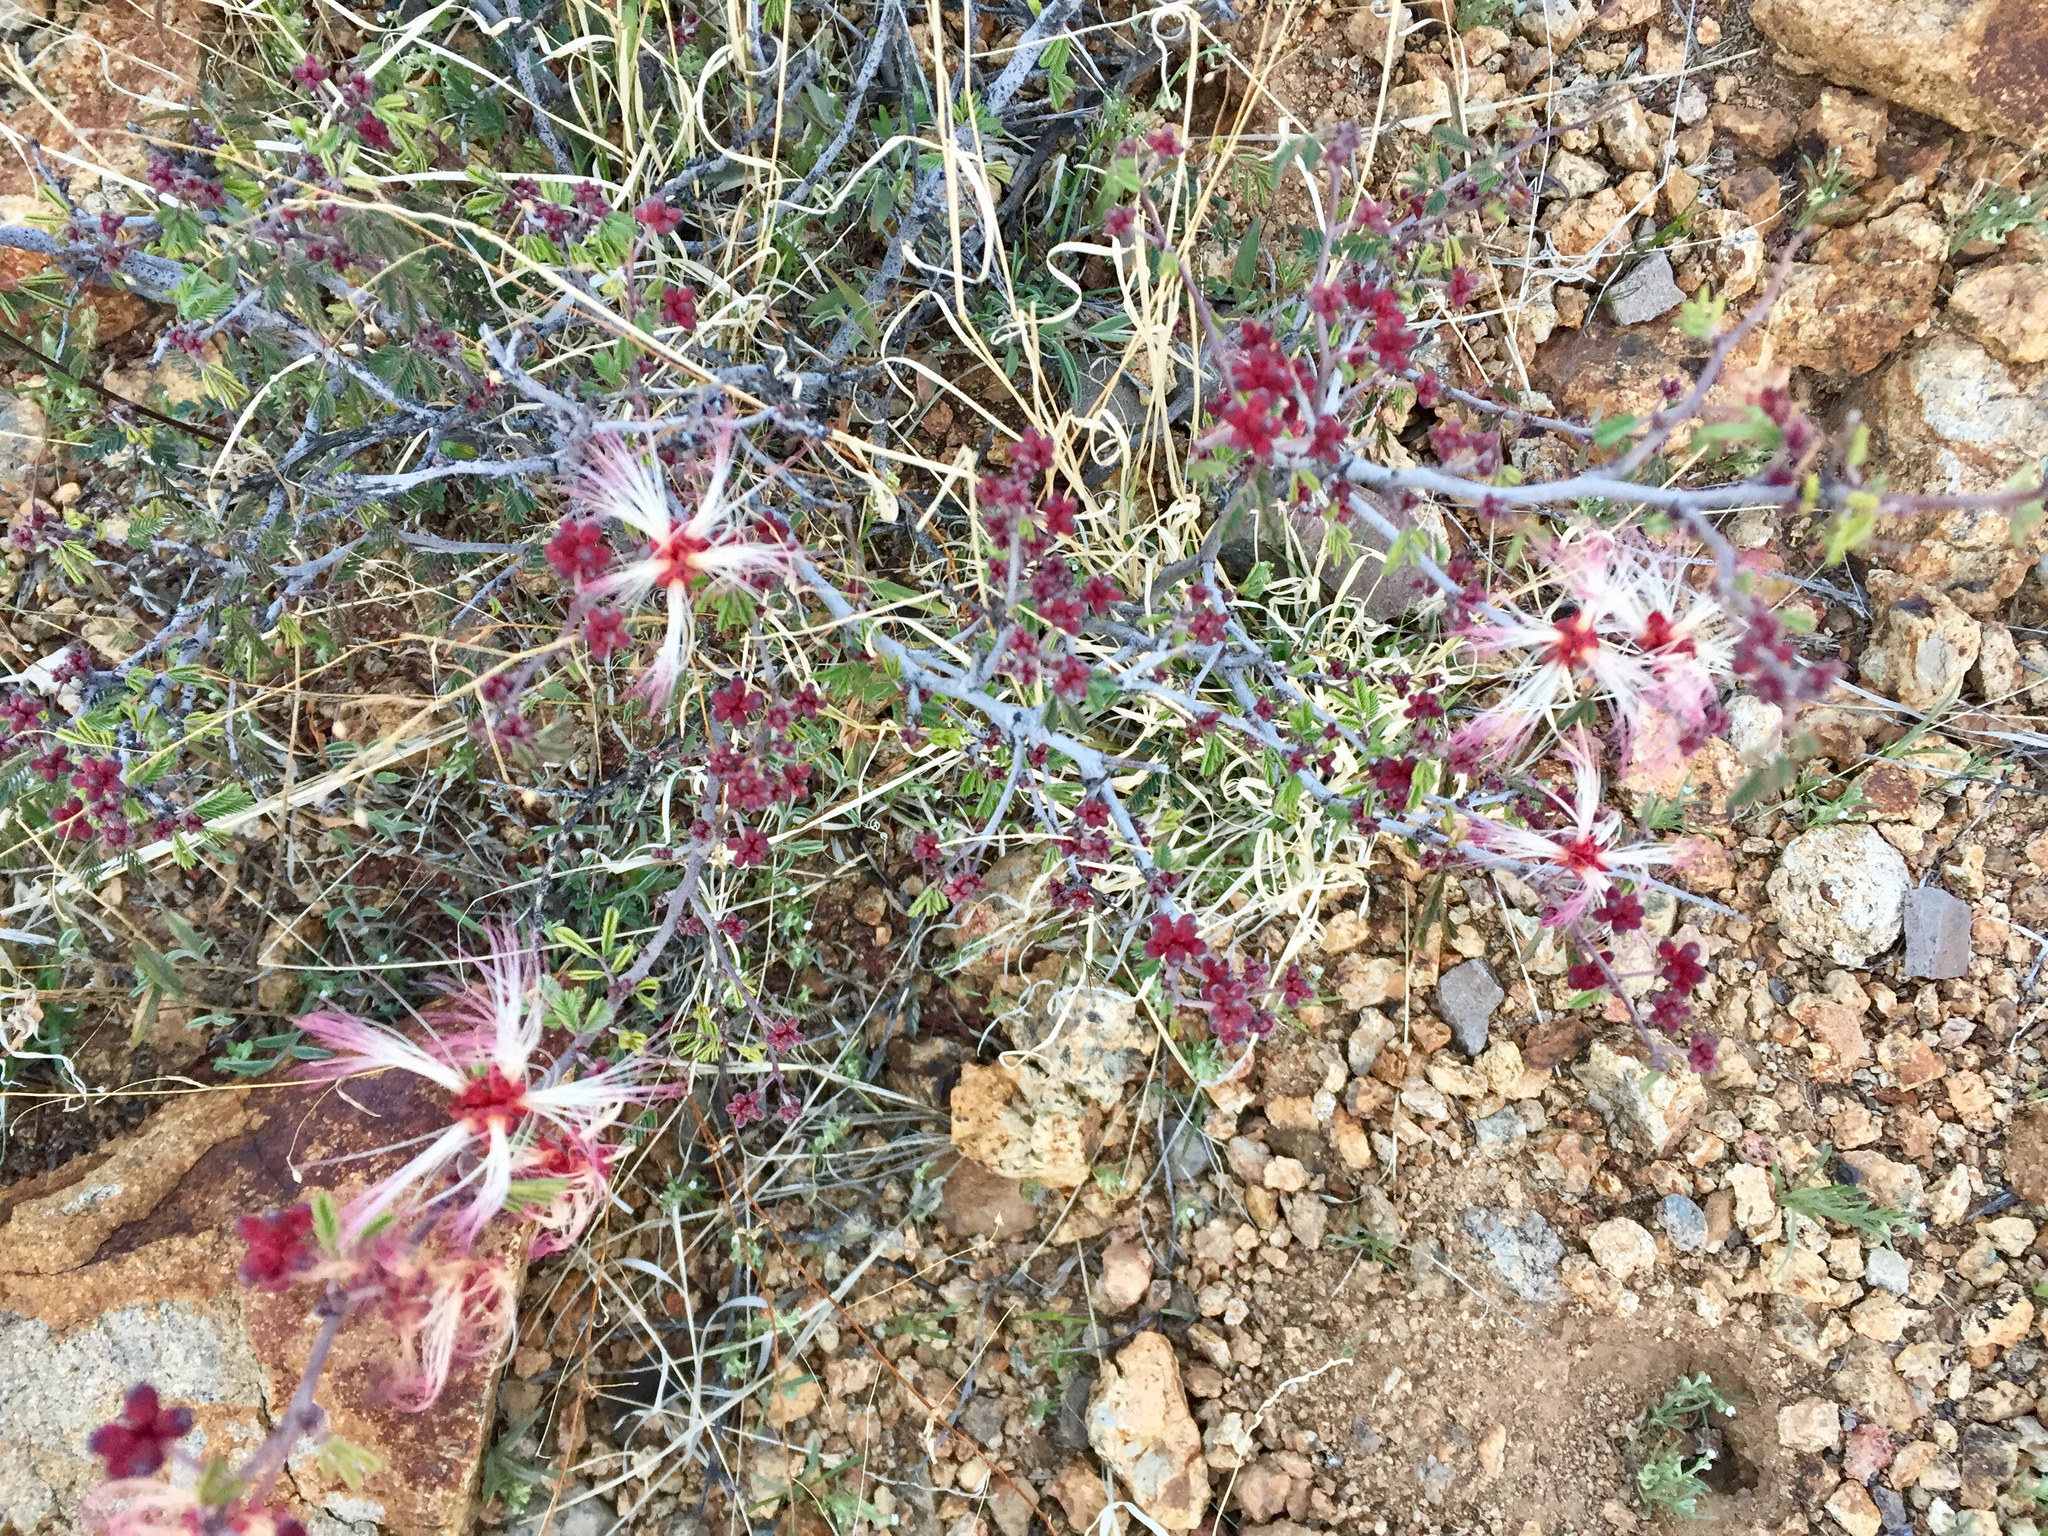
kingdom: Plantae
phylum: Tracheophyta
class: Magnoliopsida
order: Fabales
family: Fabaceae
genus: Calliandra
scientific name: Calliandra eriophylla
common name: Fairy-duster
